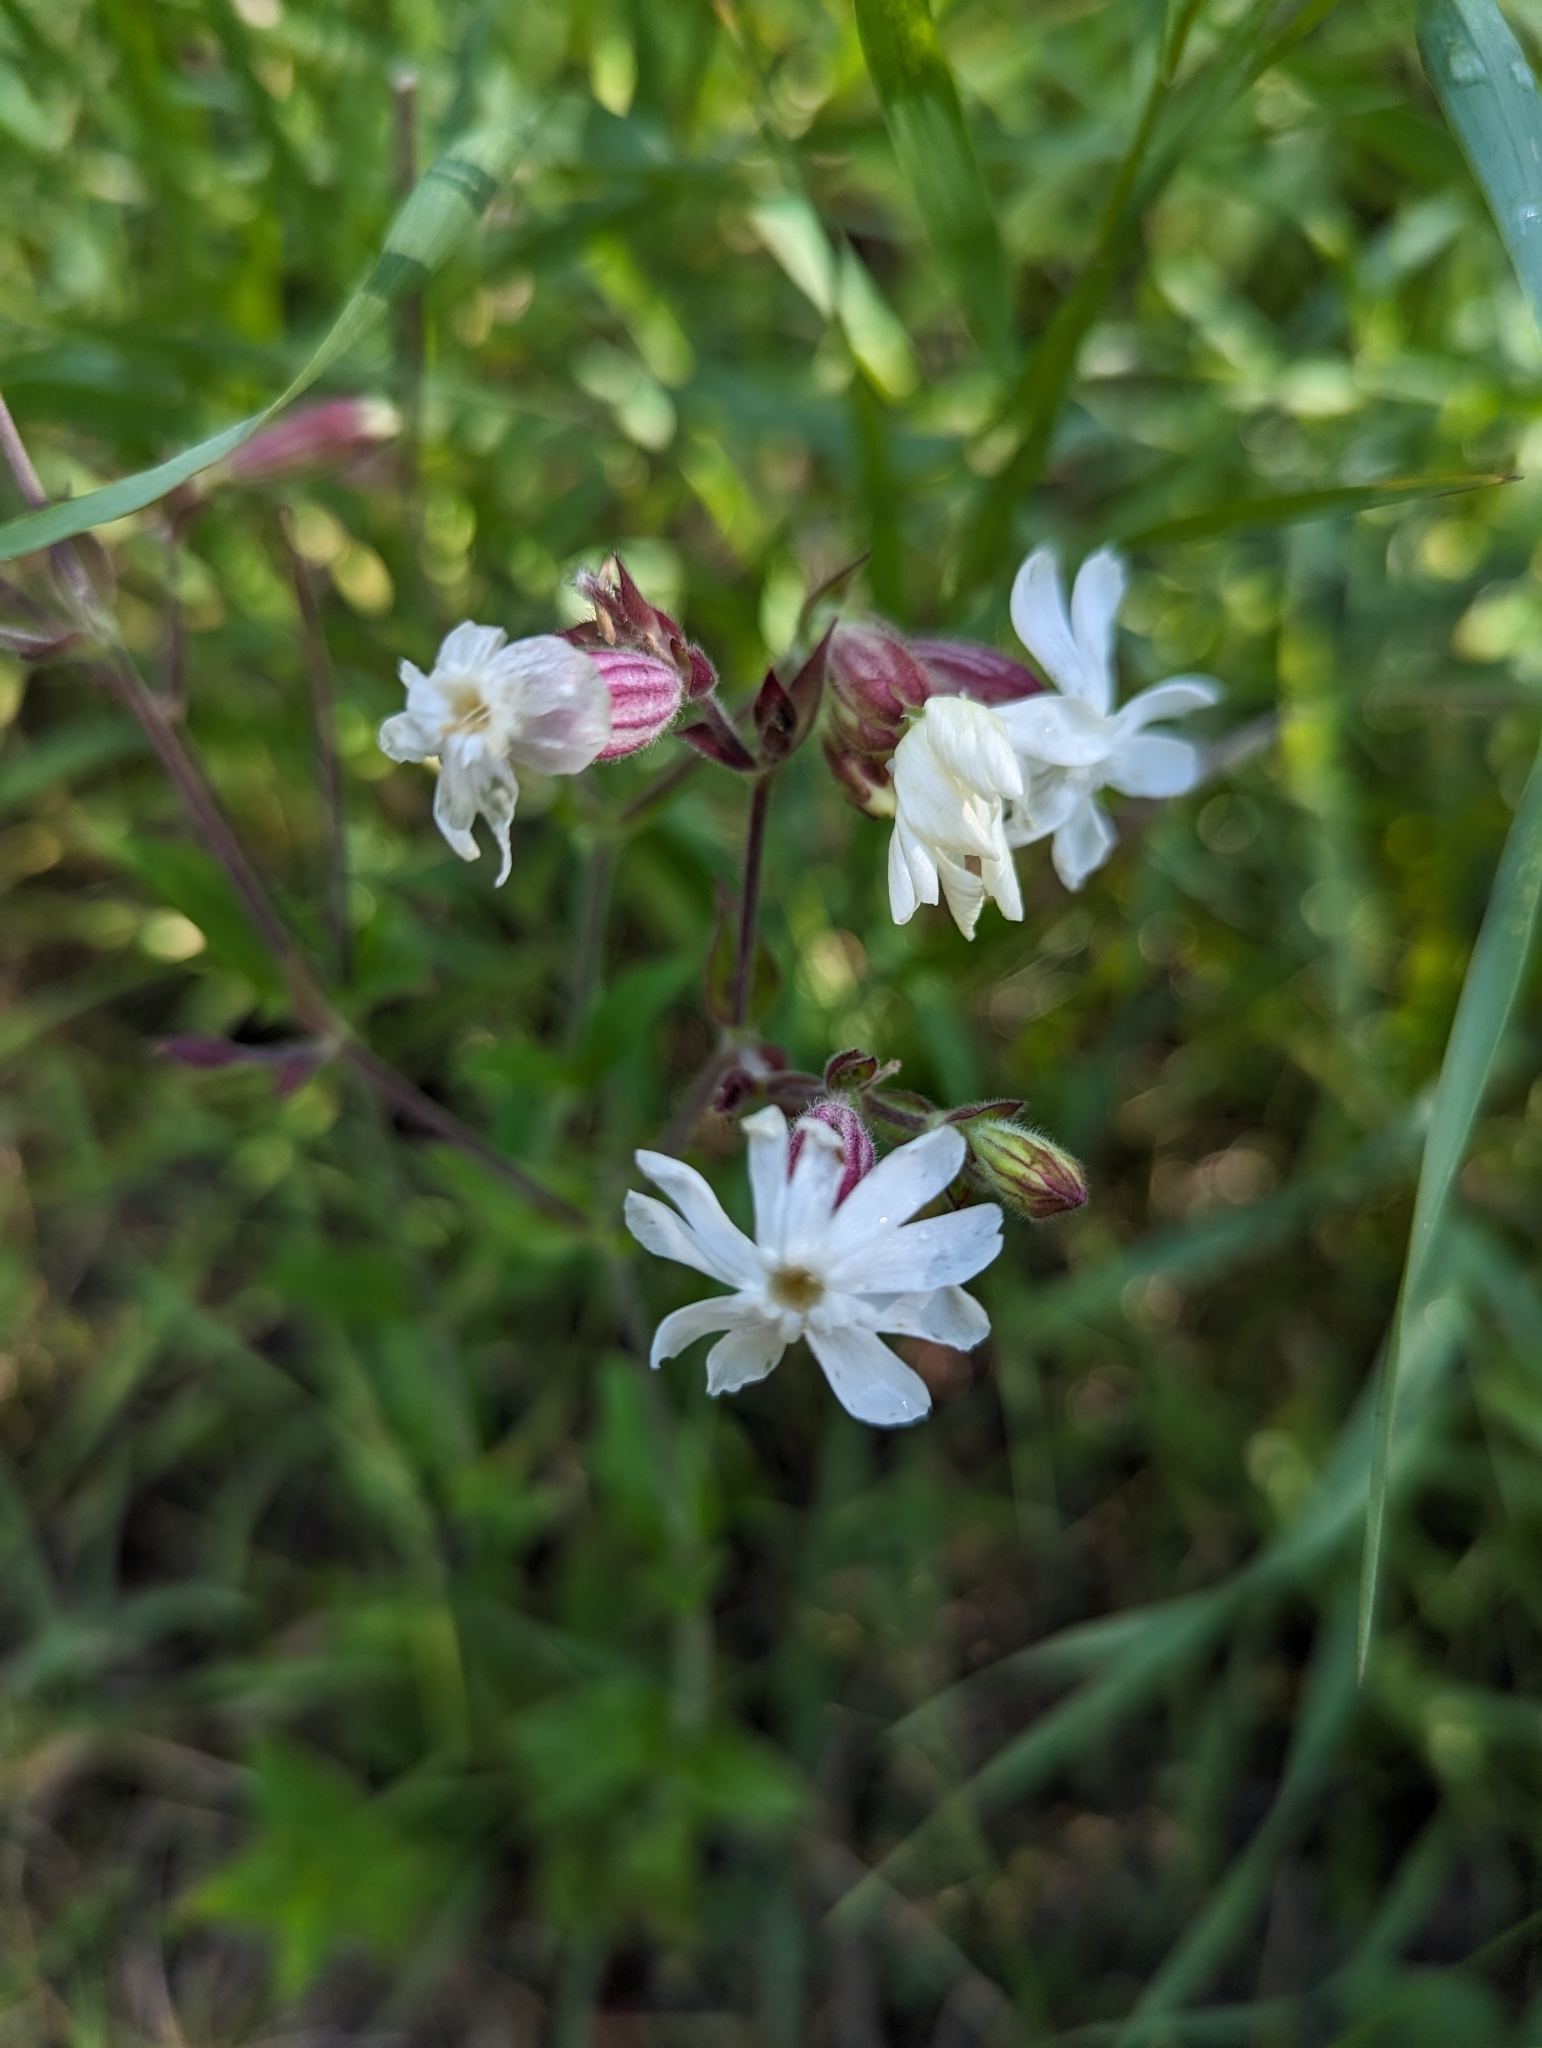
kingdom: Plantae
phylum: Tracheophyta
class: Magnoliopsida
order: Caryophyllales
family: Caryophyllaceae
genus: Silene
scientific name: Silene latifolia
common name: White campion
